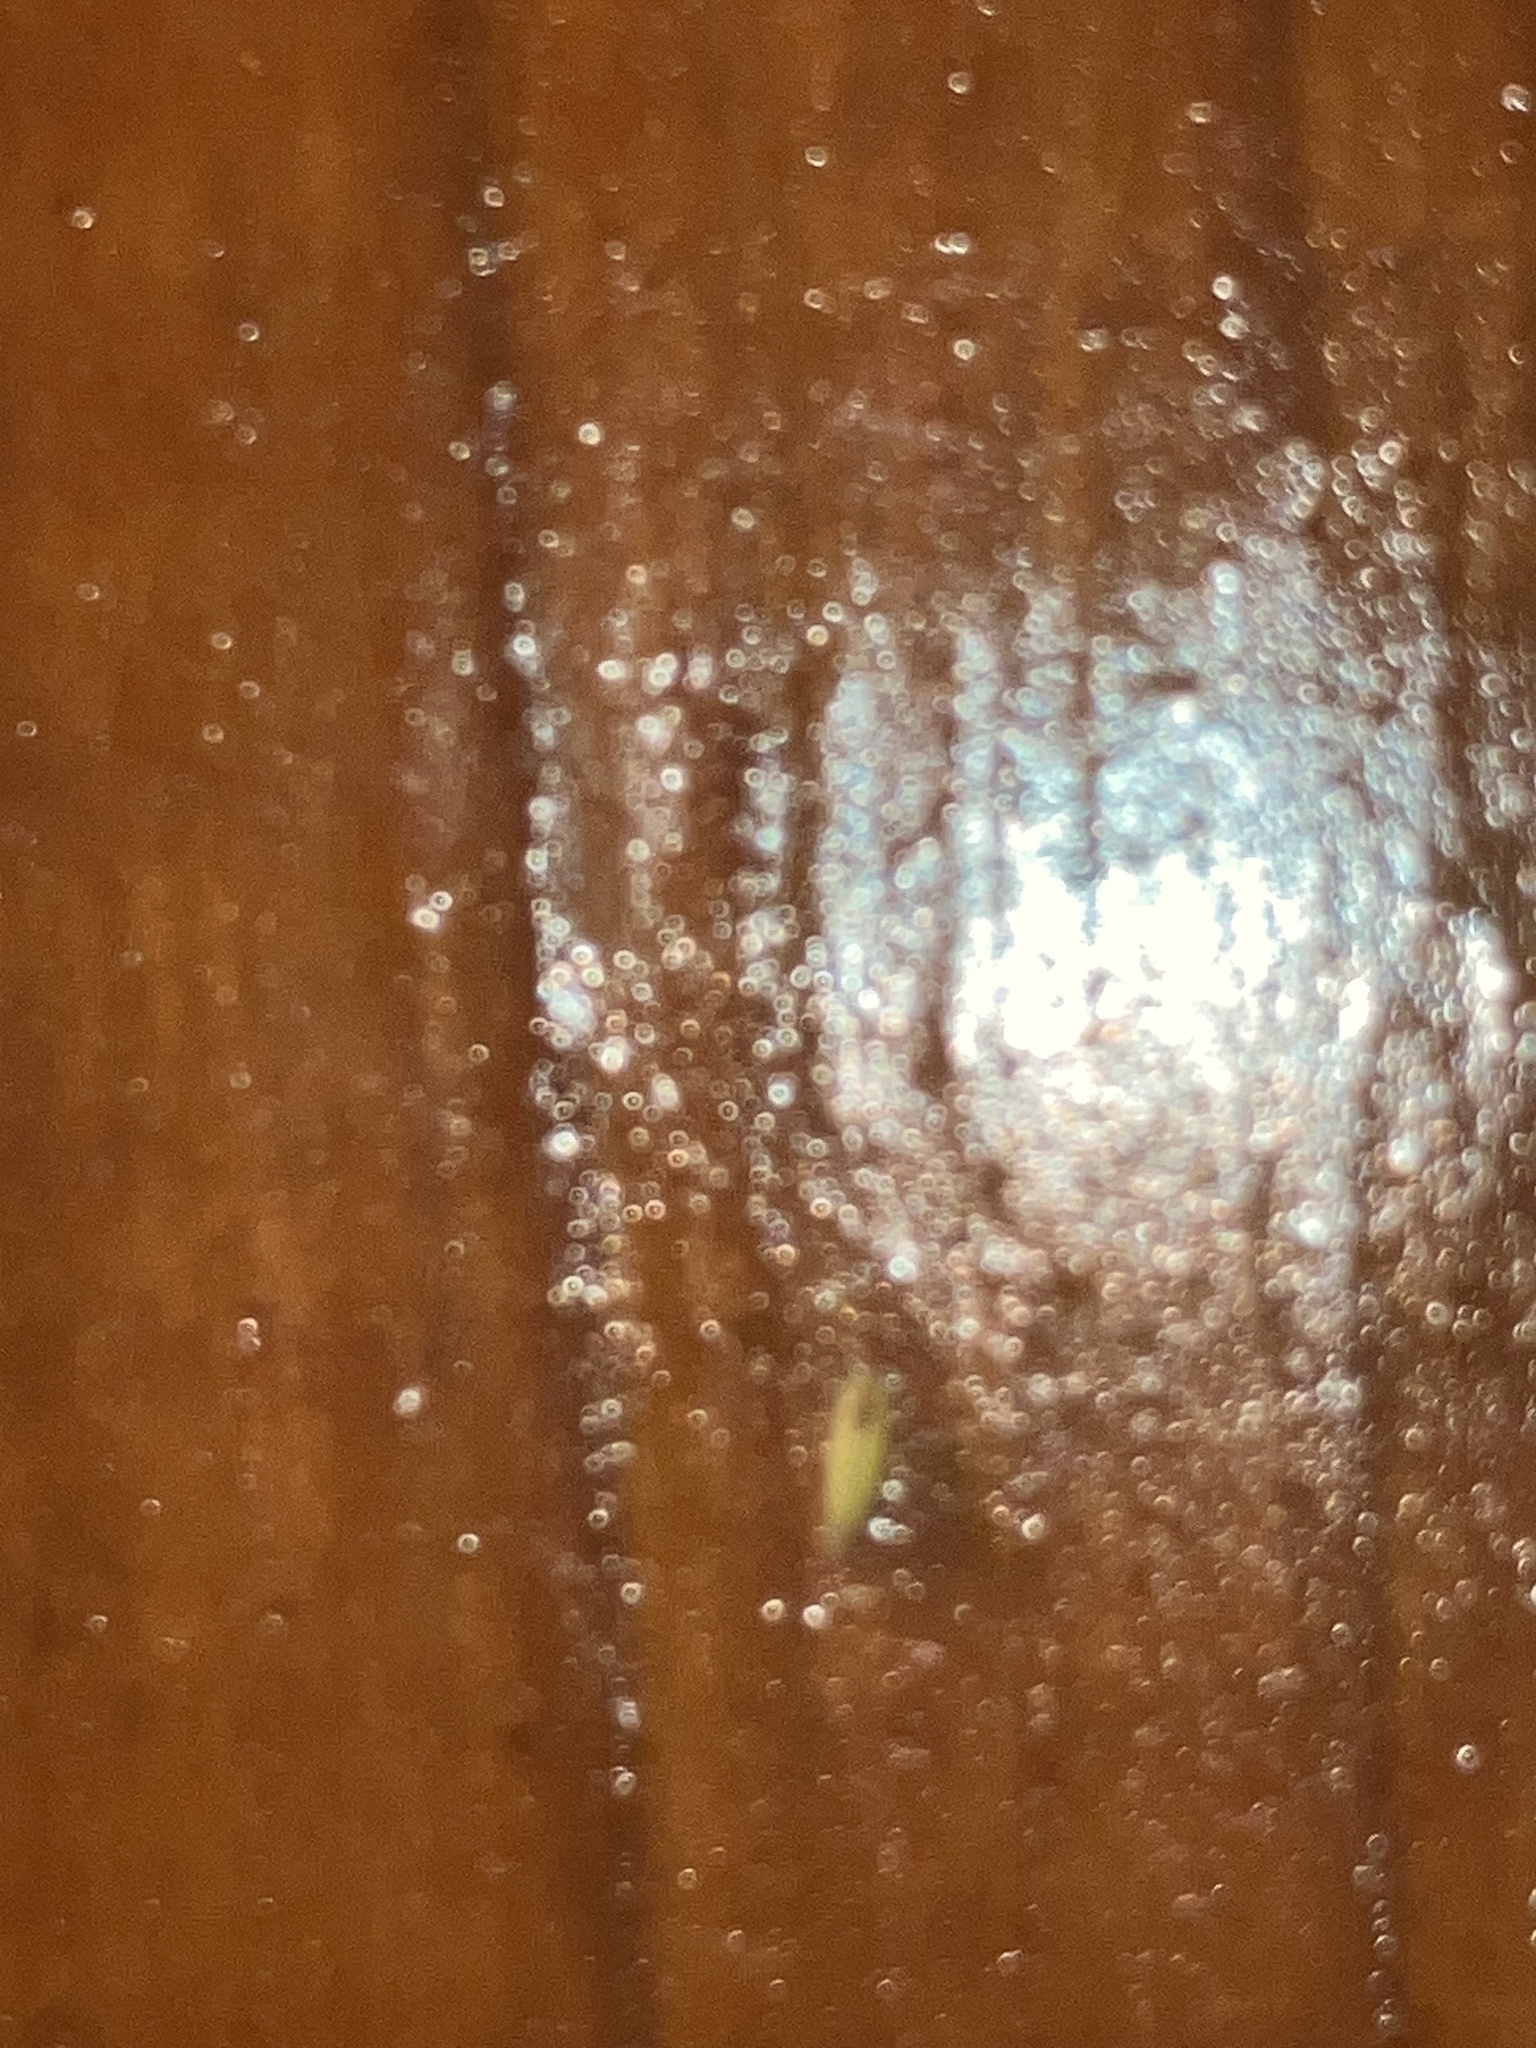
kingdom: Animalia
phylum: Arthropoda
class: Insecta
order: Hemiptera
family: Cicadellidae
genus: Erythridula
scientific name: Erythridula
